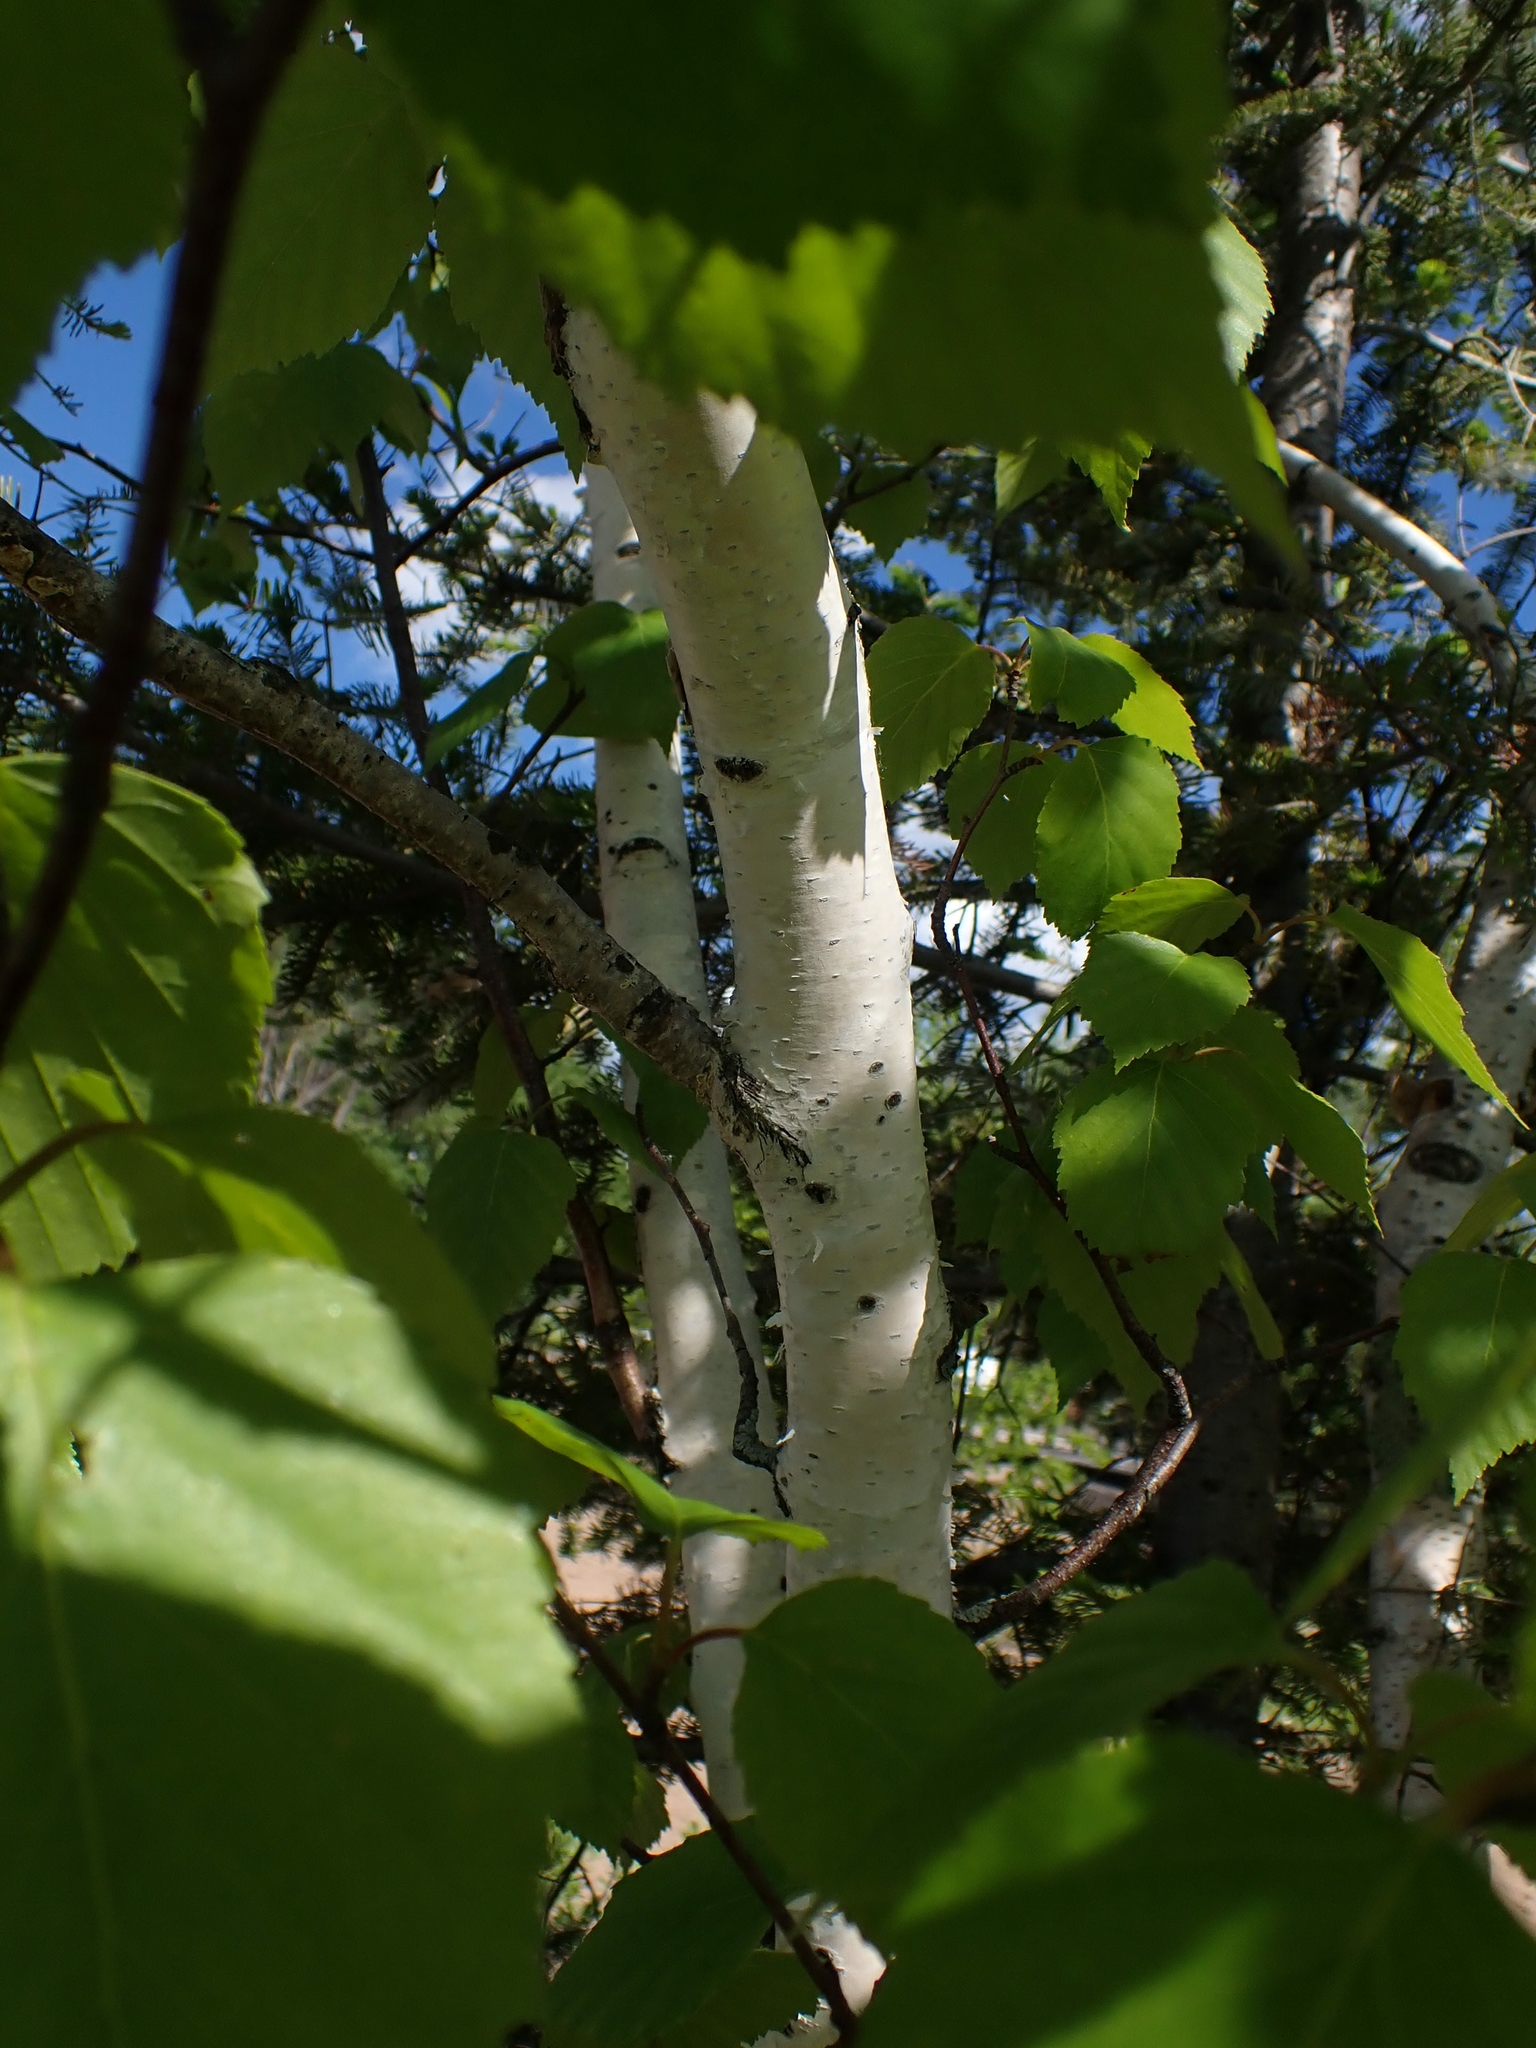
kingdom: Plantae
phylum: Tracheophyta
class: Magnoliopsida
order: Fagales
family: Betulaceae
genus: Betula
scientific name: Betula papyrifera
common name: Paper birch
